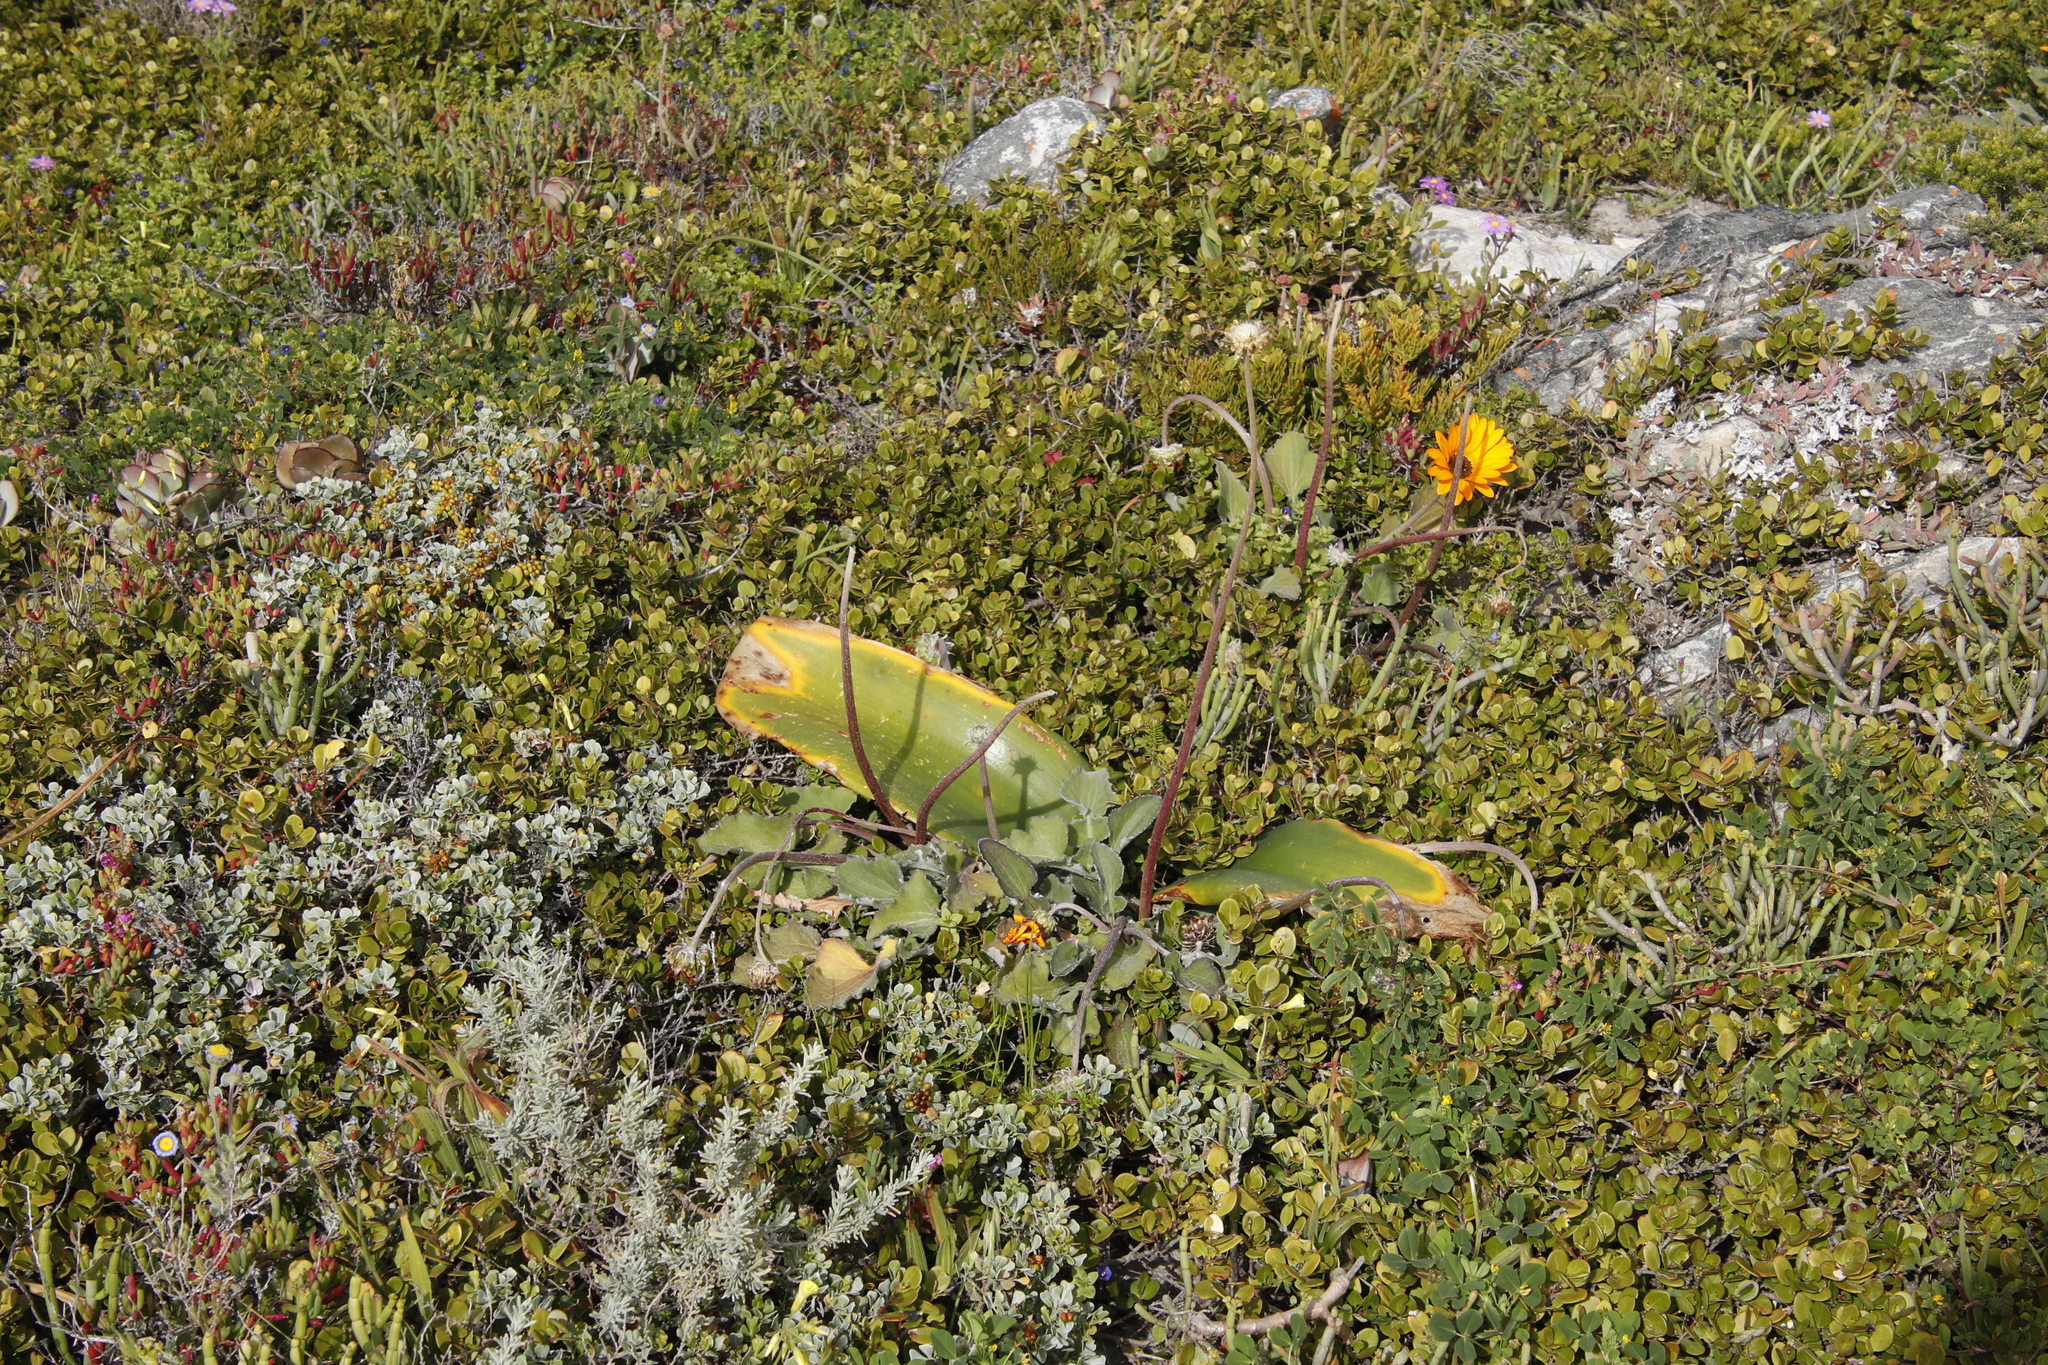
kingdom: Plantae
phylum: Tracheophyta
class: Liliopsida
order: Asparagales
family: Amaryllidaceae
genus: Haemanthus
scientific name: Haemanthus coccineus
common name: Cape-tulip
